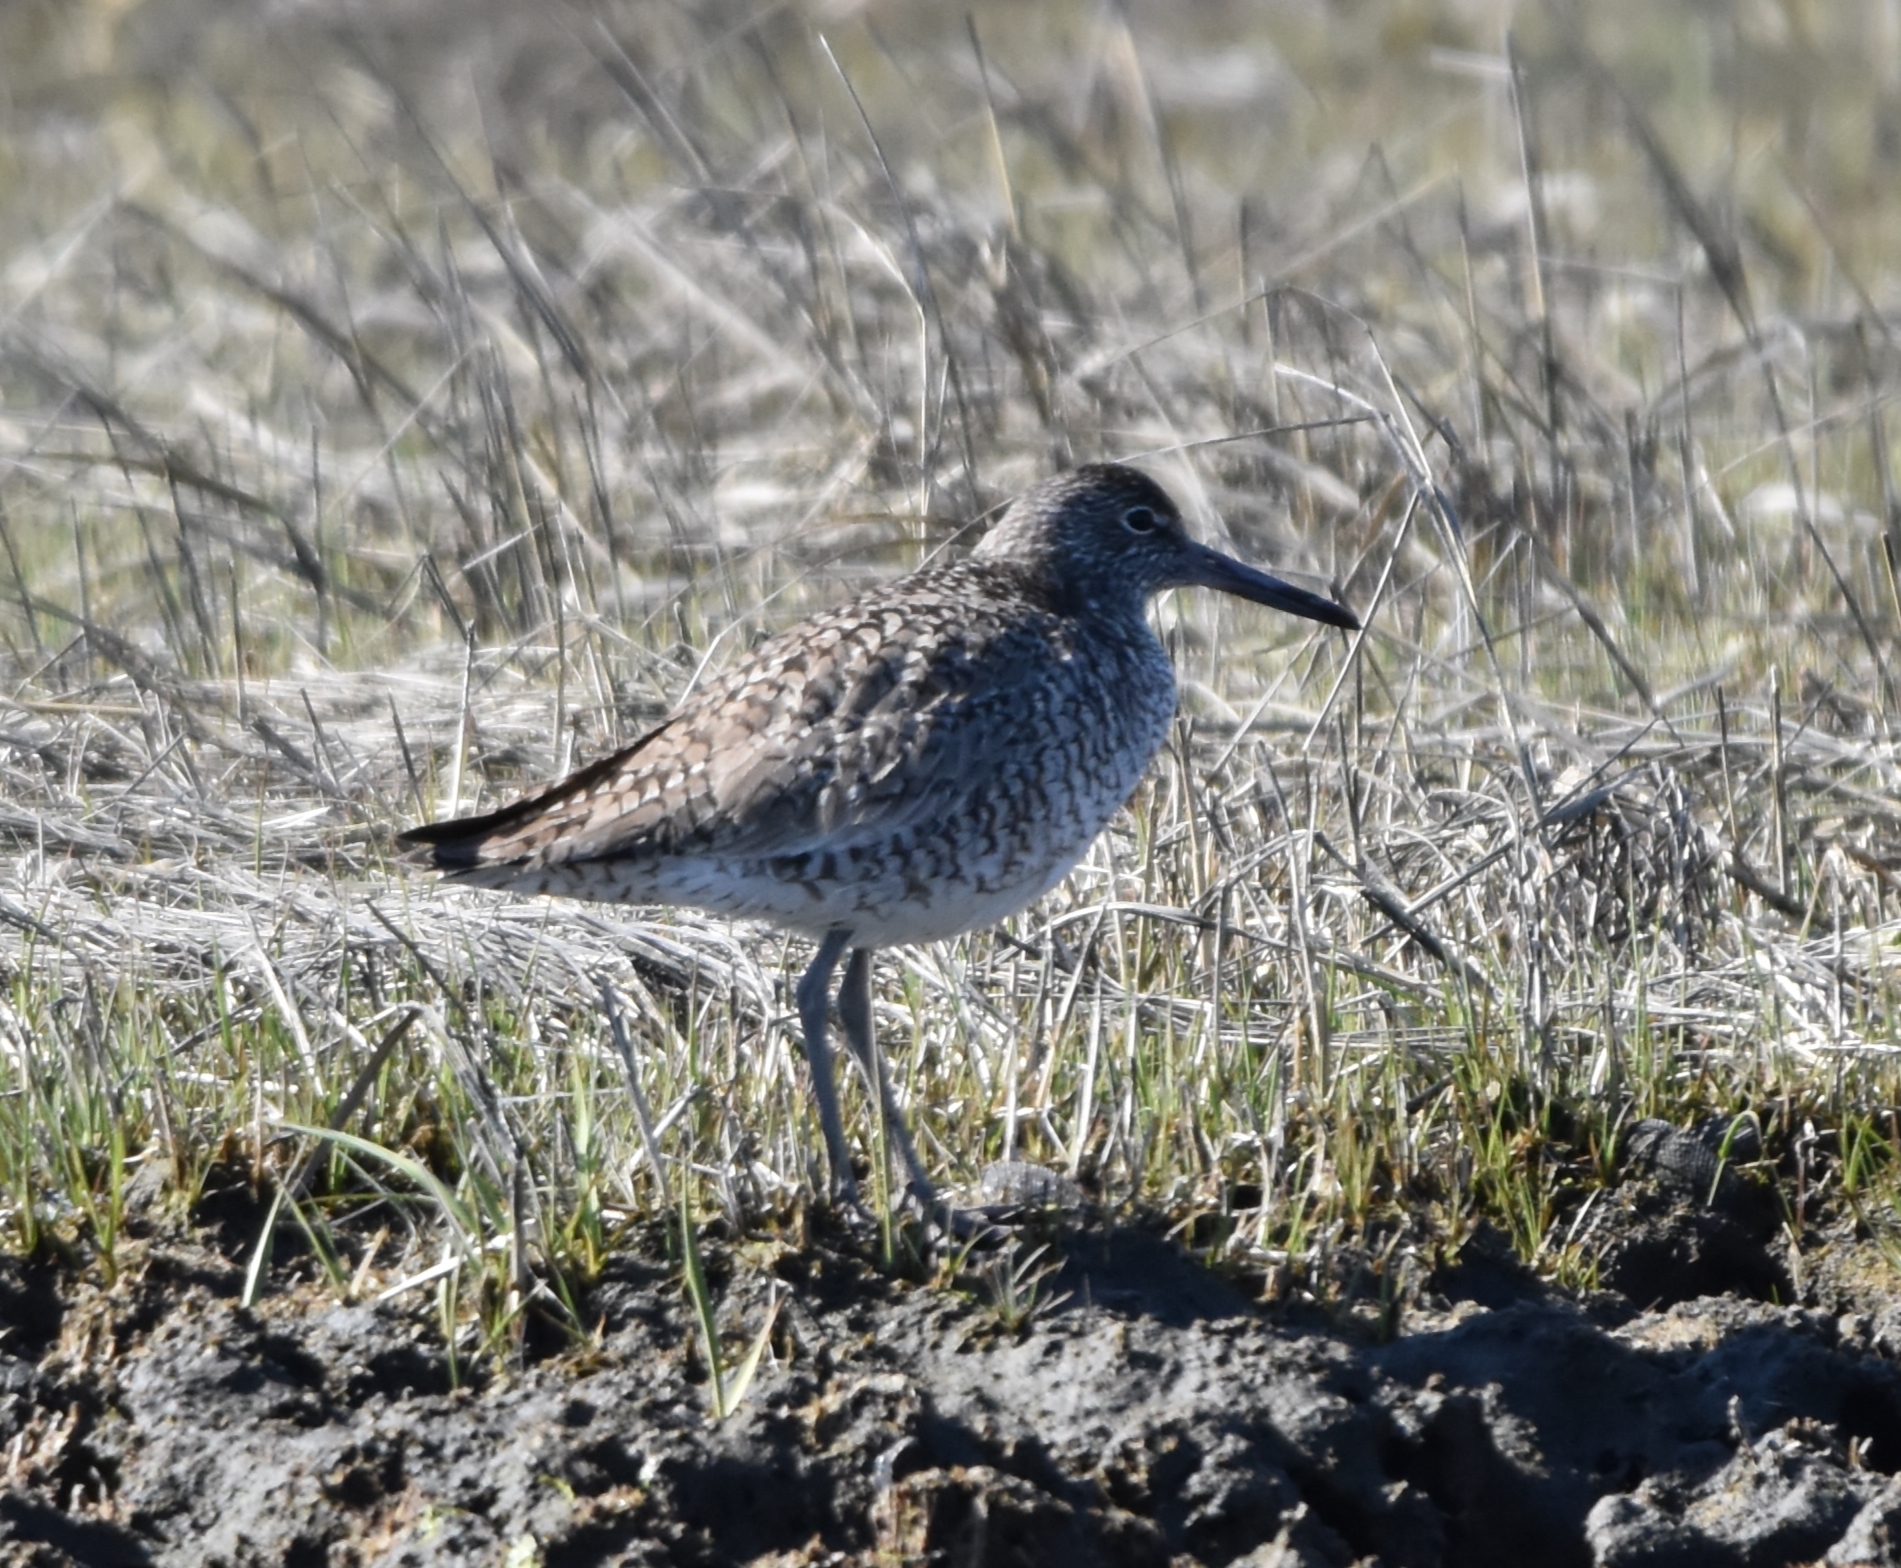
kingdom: Animalia
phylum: Chordata
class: Aves
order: Charadriiformes
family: Scolopacidae
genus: Tringa
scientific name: Tringa semipalmata
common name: Willet
